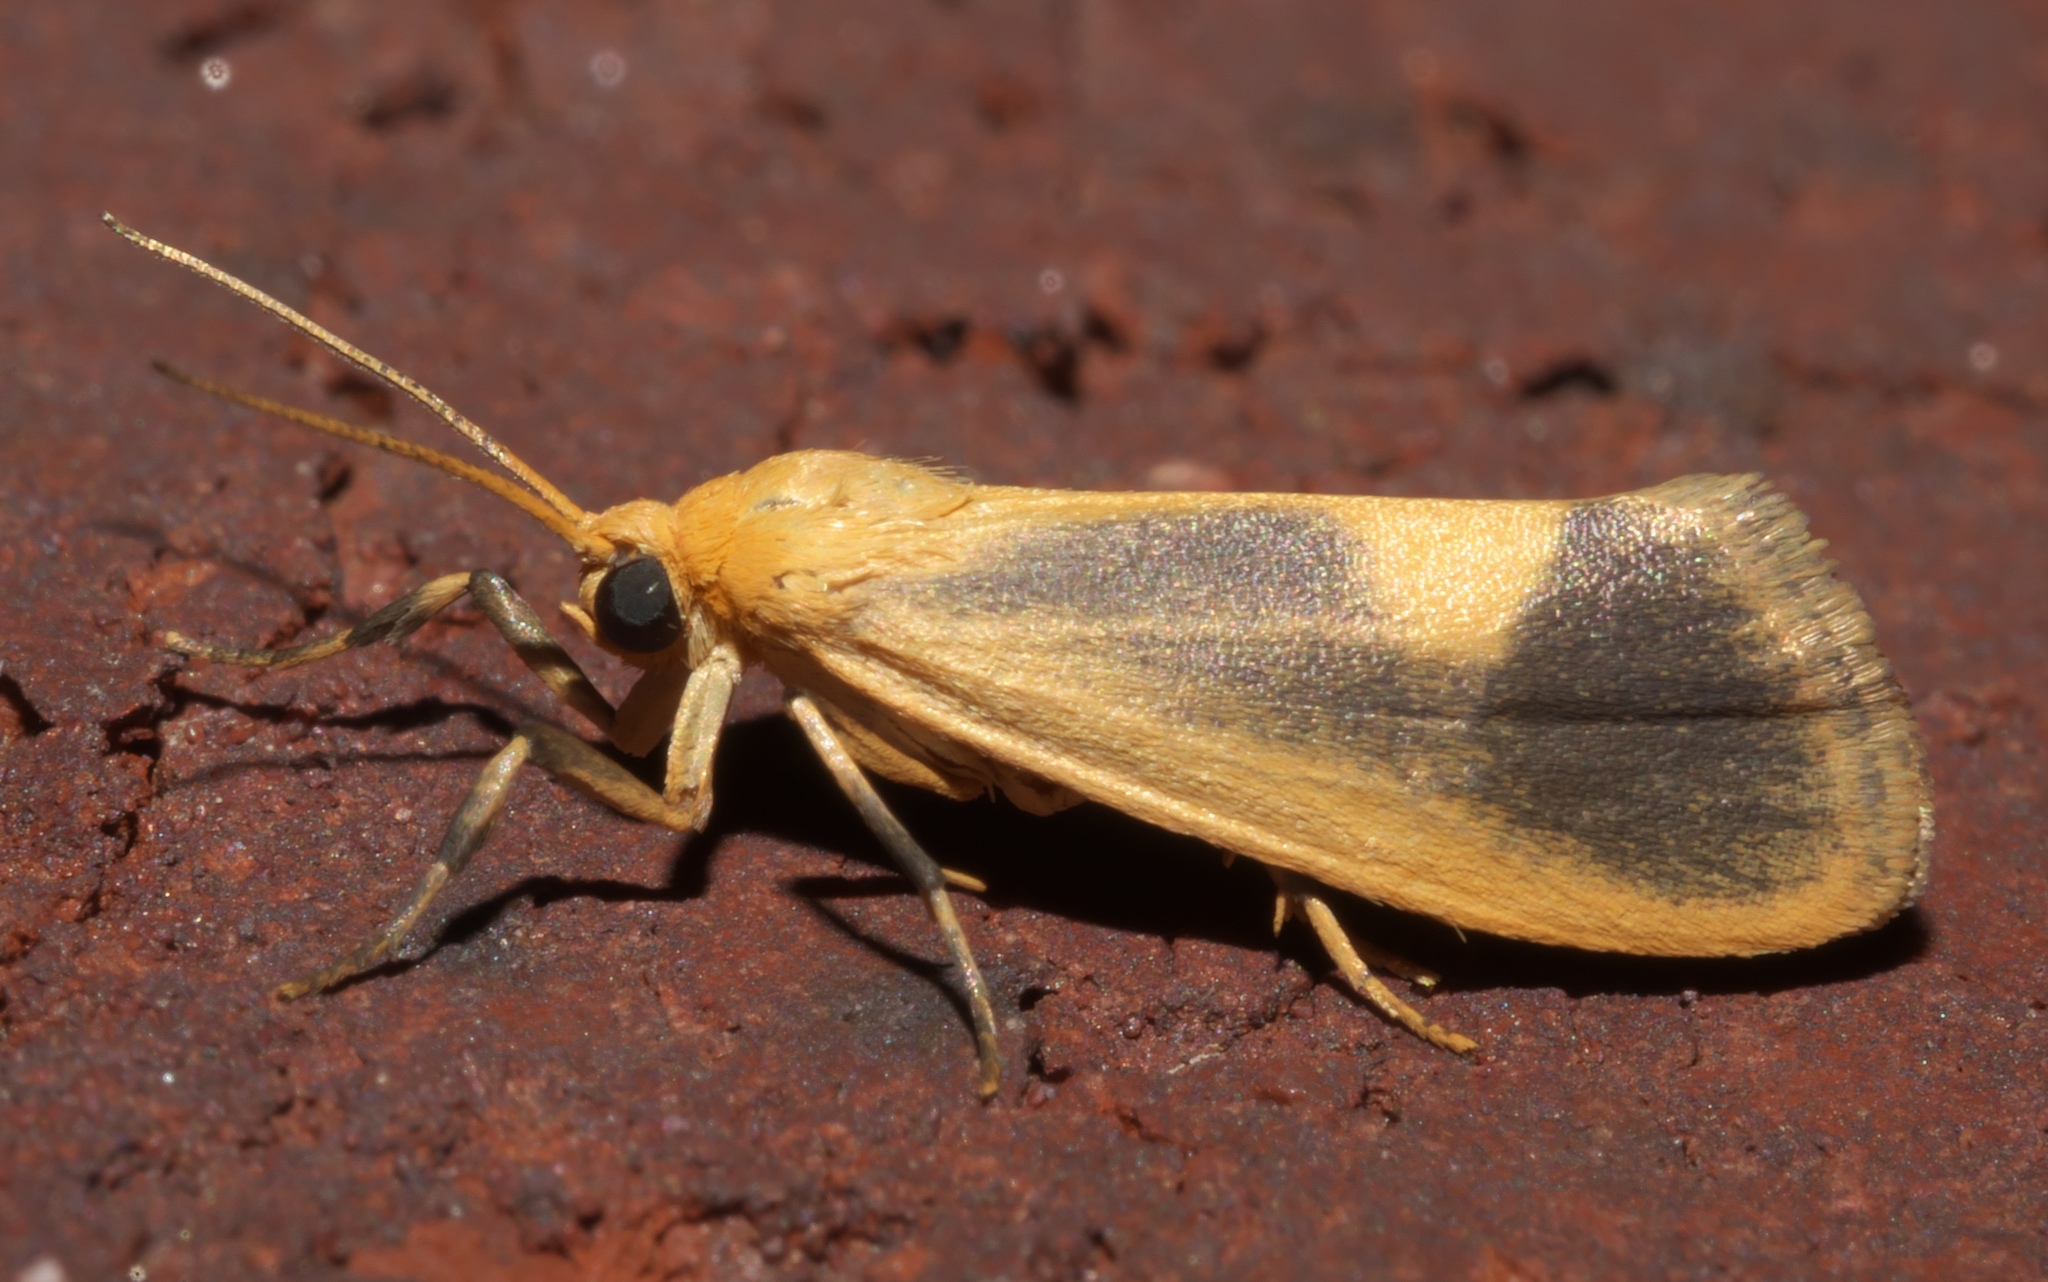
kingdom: Animalia
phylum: Arthropoda
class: Insecta
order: Lepidoptera
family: Erebidae
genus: Cisthene
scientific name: Cisthene plumbea
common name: Lead colored lichen moth
